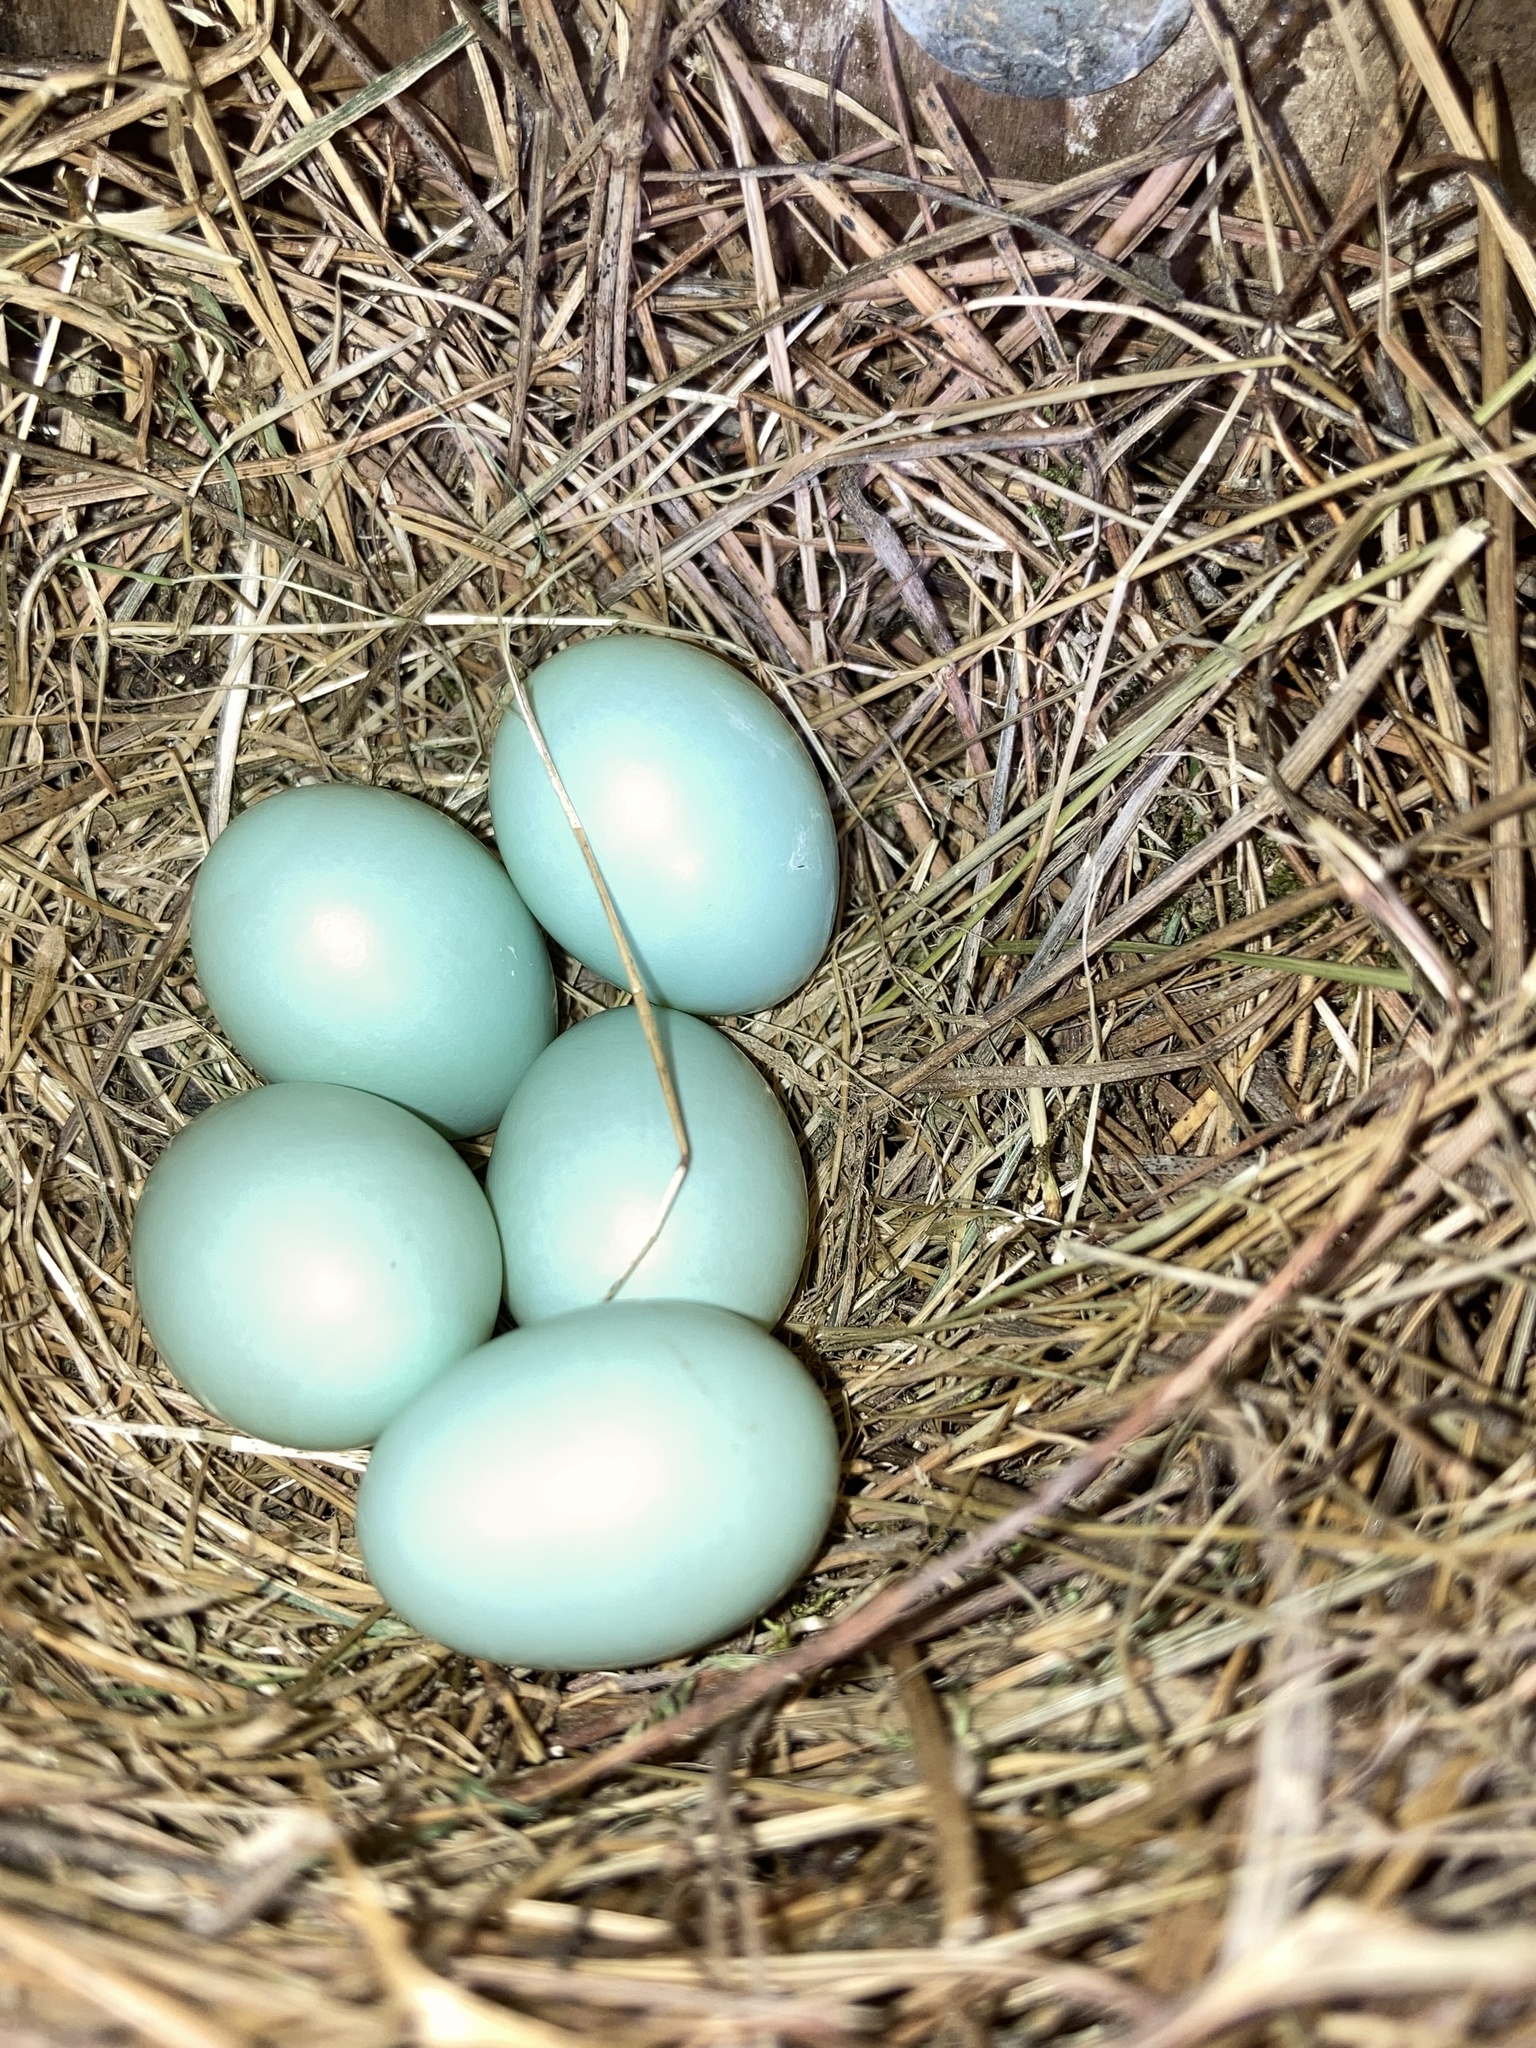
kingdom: Animalia
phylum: Chordata
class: Aves
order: Passeriformes
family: Turdidae
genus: Sialia
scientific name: Sialia sialis
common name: Eastern bluebird
